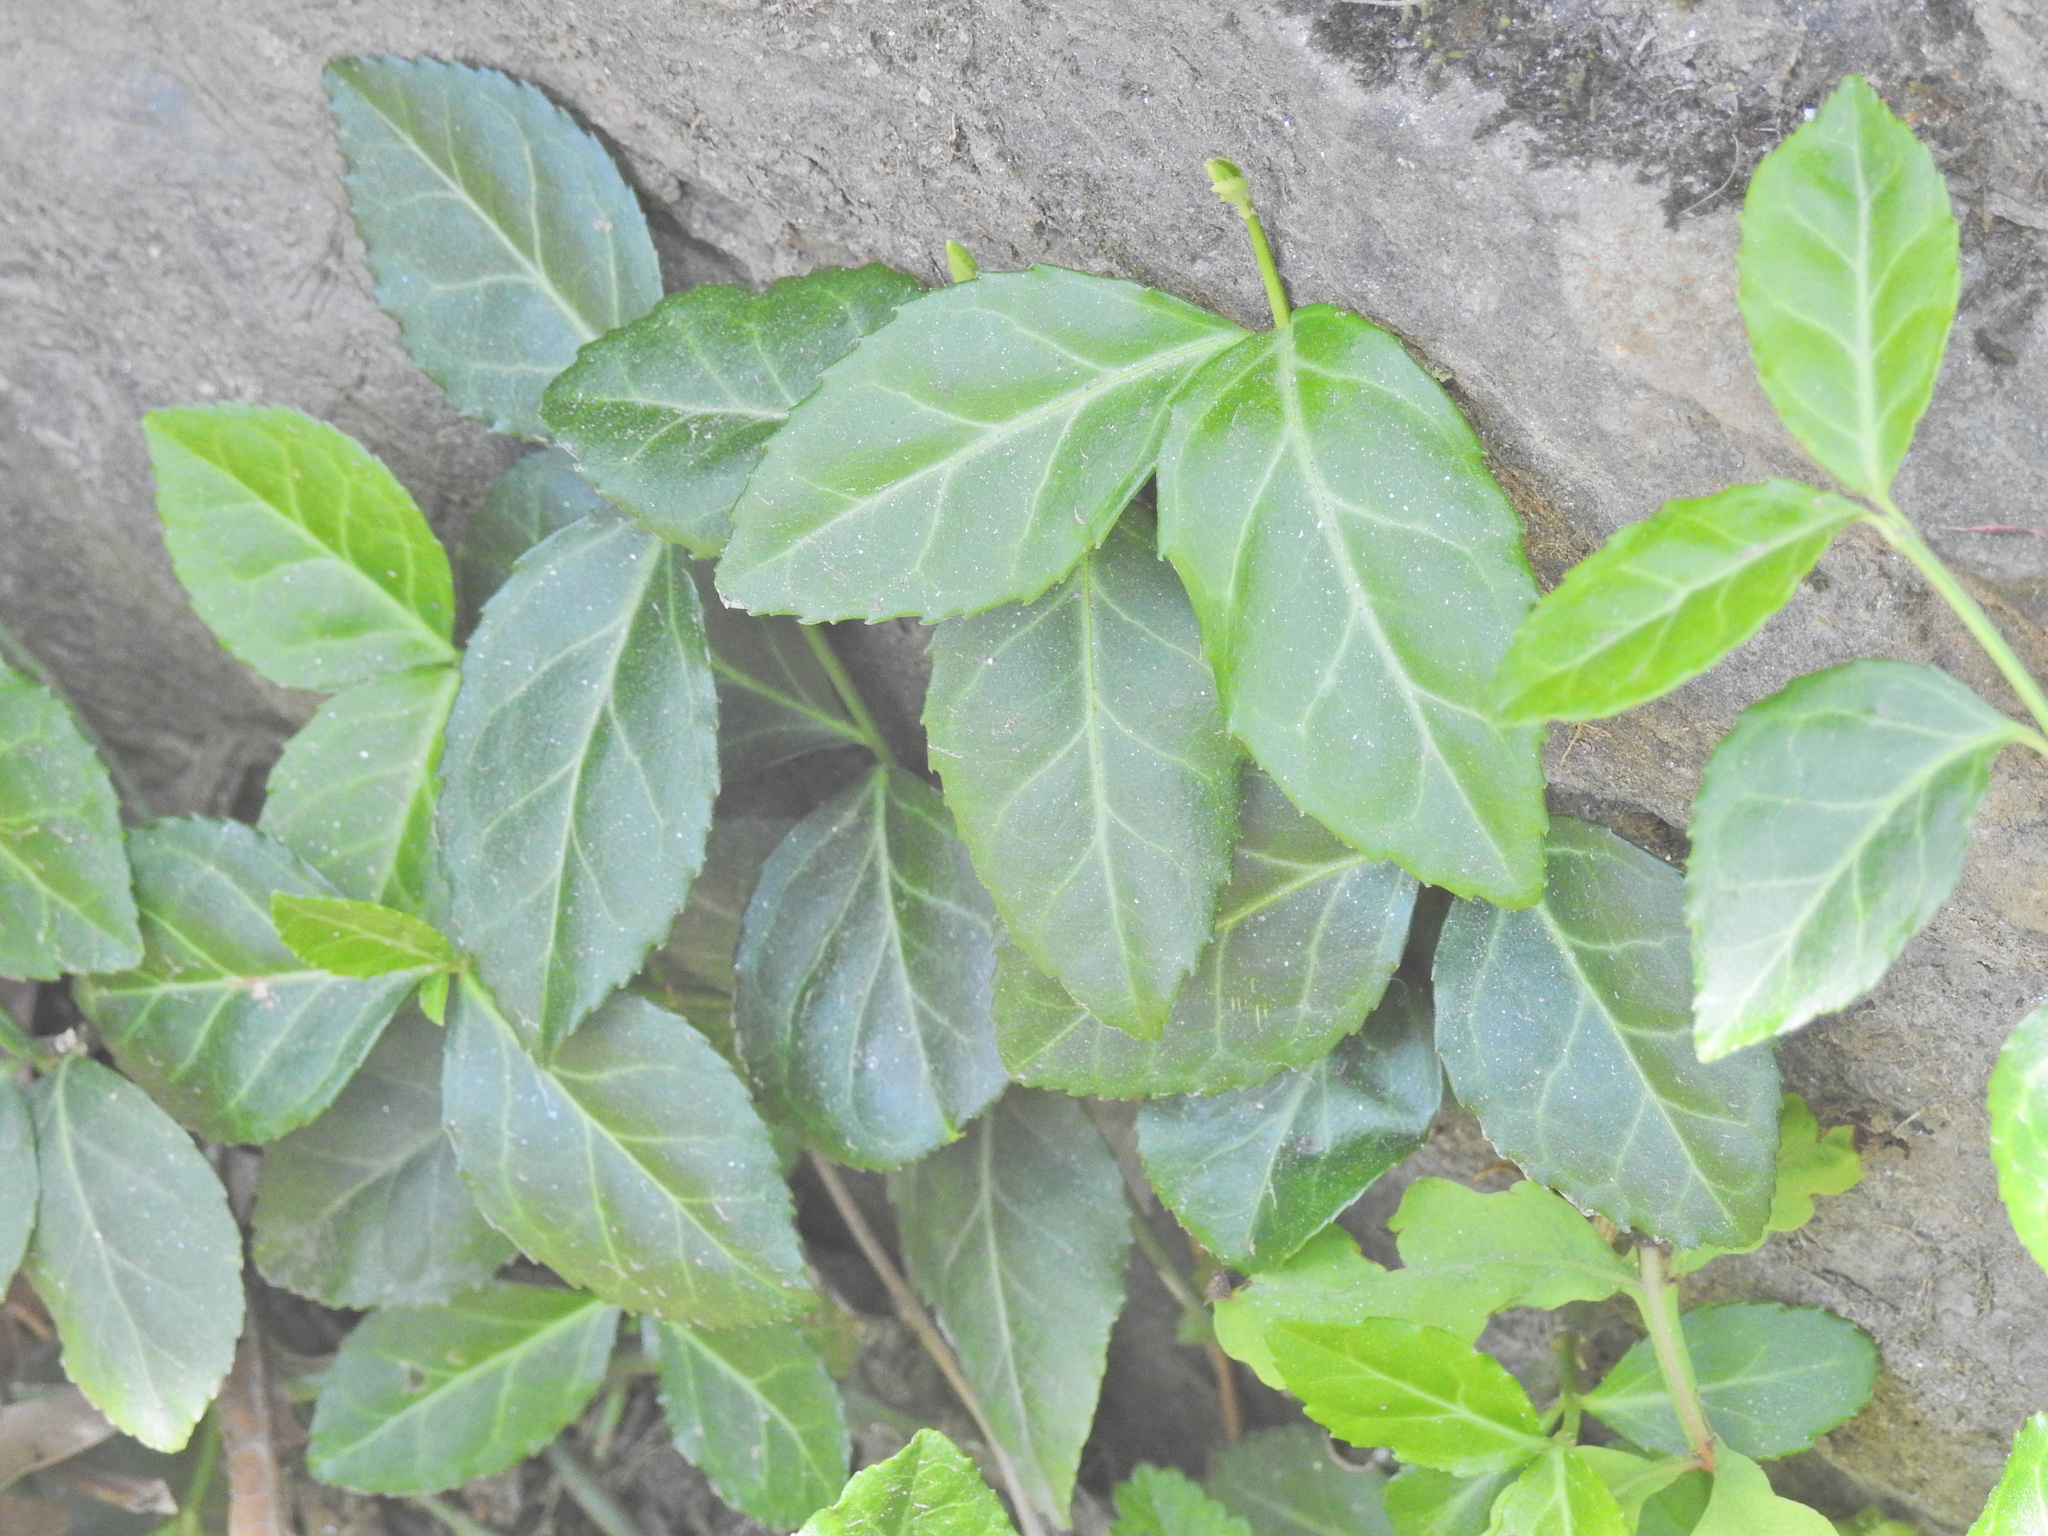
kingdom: Plantae
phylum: Tracheophyta
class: Magnoliopsida
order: Celastrales
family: Celastraceae
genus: Euonymus
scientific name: Euonymus fortunei
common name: Climbing euonymus
